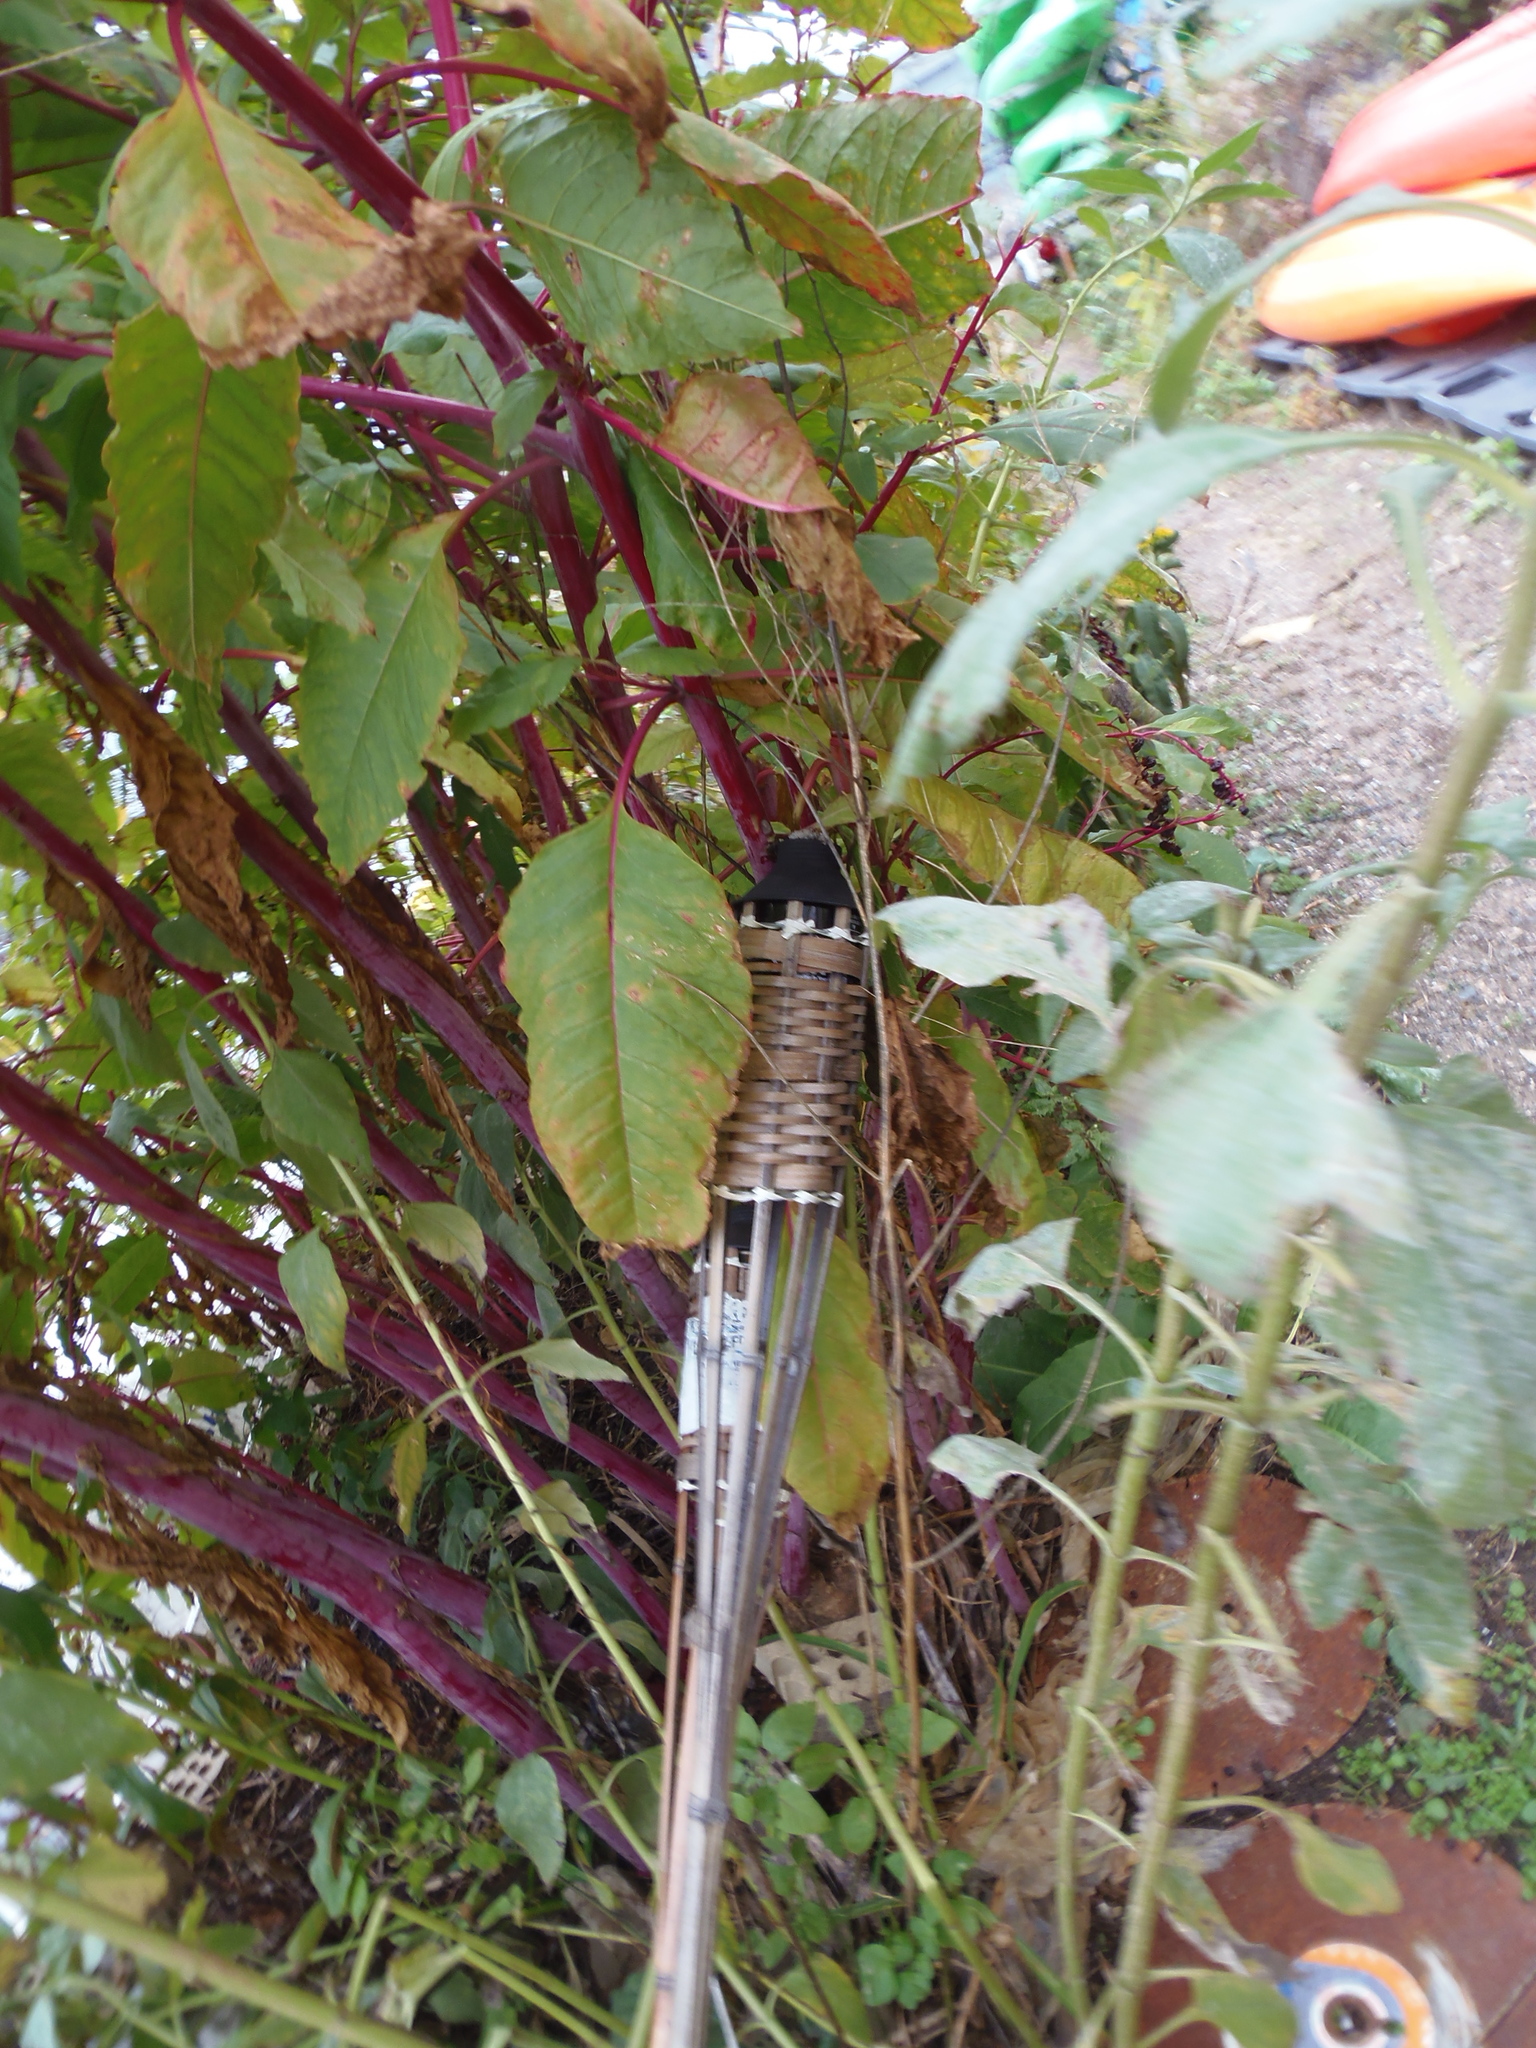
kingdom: Plantae
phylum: Tracheophyta
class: Magnoliopsida
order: Caryophyllales
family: Phytolaccaceae
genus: Phytolacca
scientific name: Phytolacca americana
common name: American pokeweed
